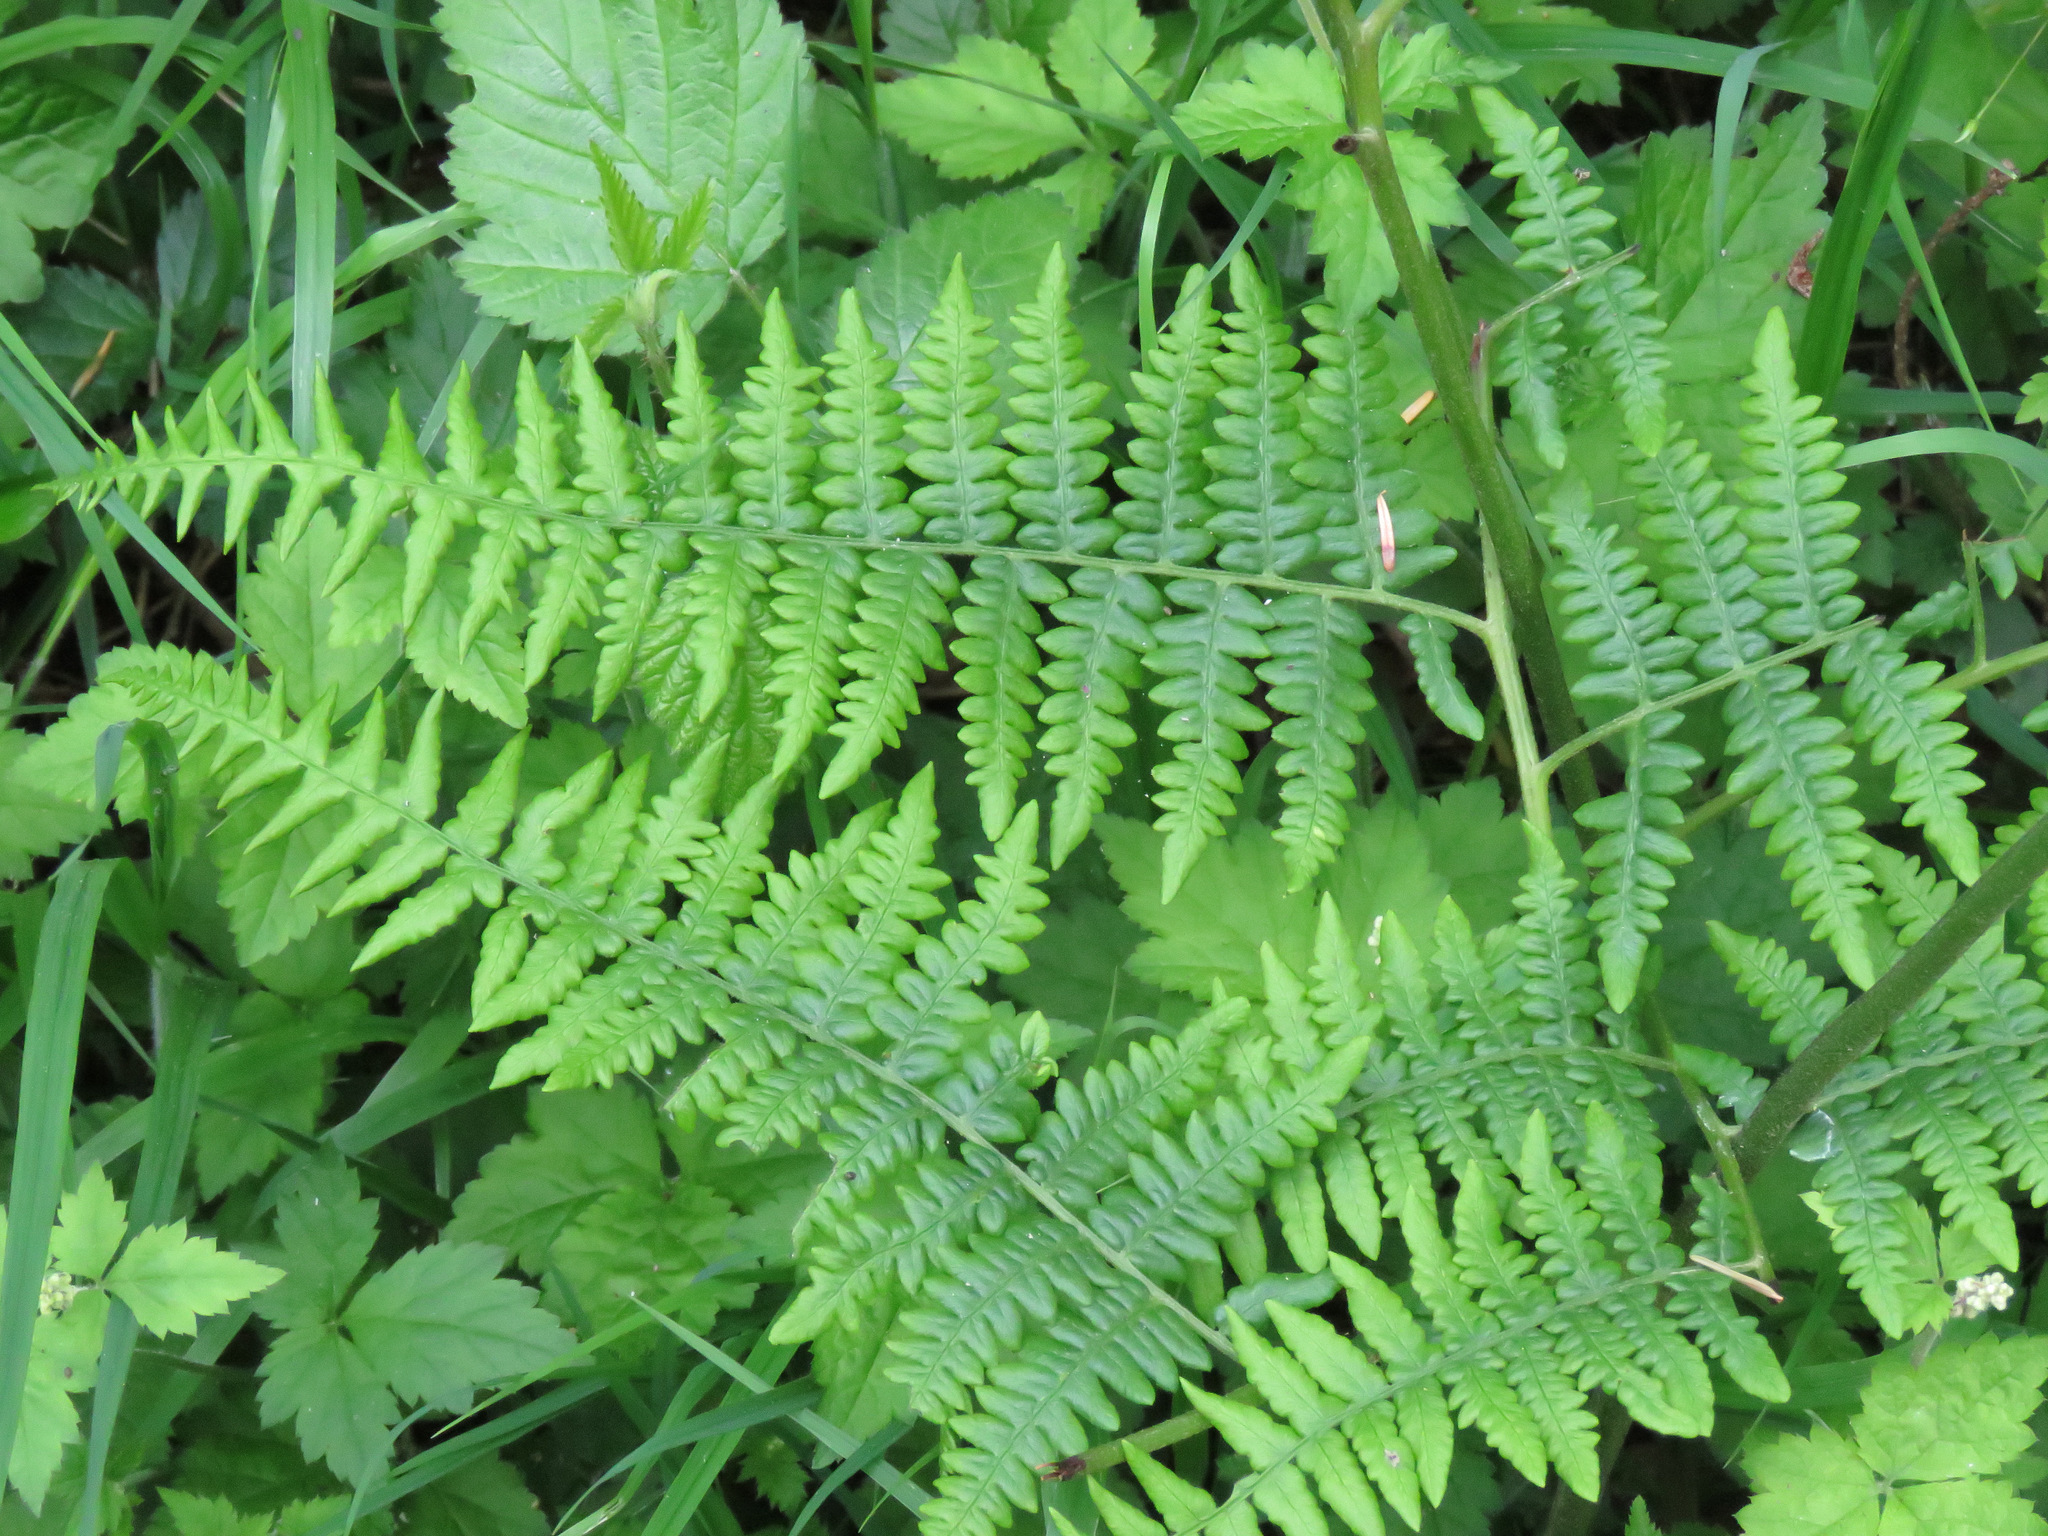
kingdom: Plantae
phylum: Tracheophyta
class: Polypodiopsida
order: Polypodiales
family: Dennstaedtiaceae
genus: Pteridium
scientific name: Pteridium aquilinum
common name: Bracken
